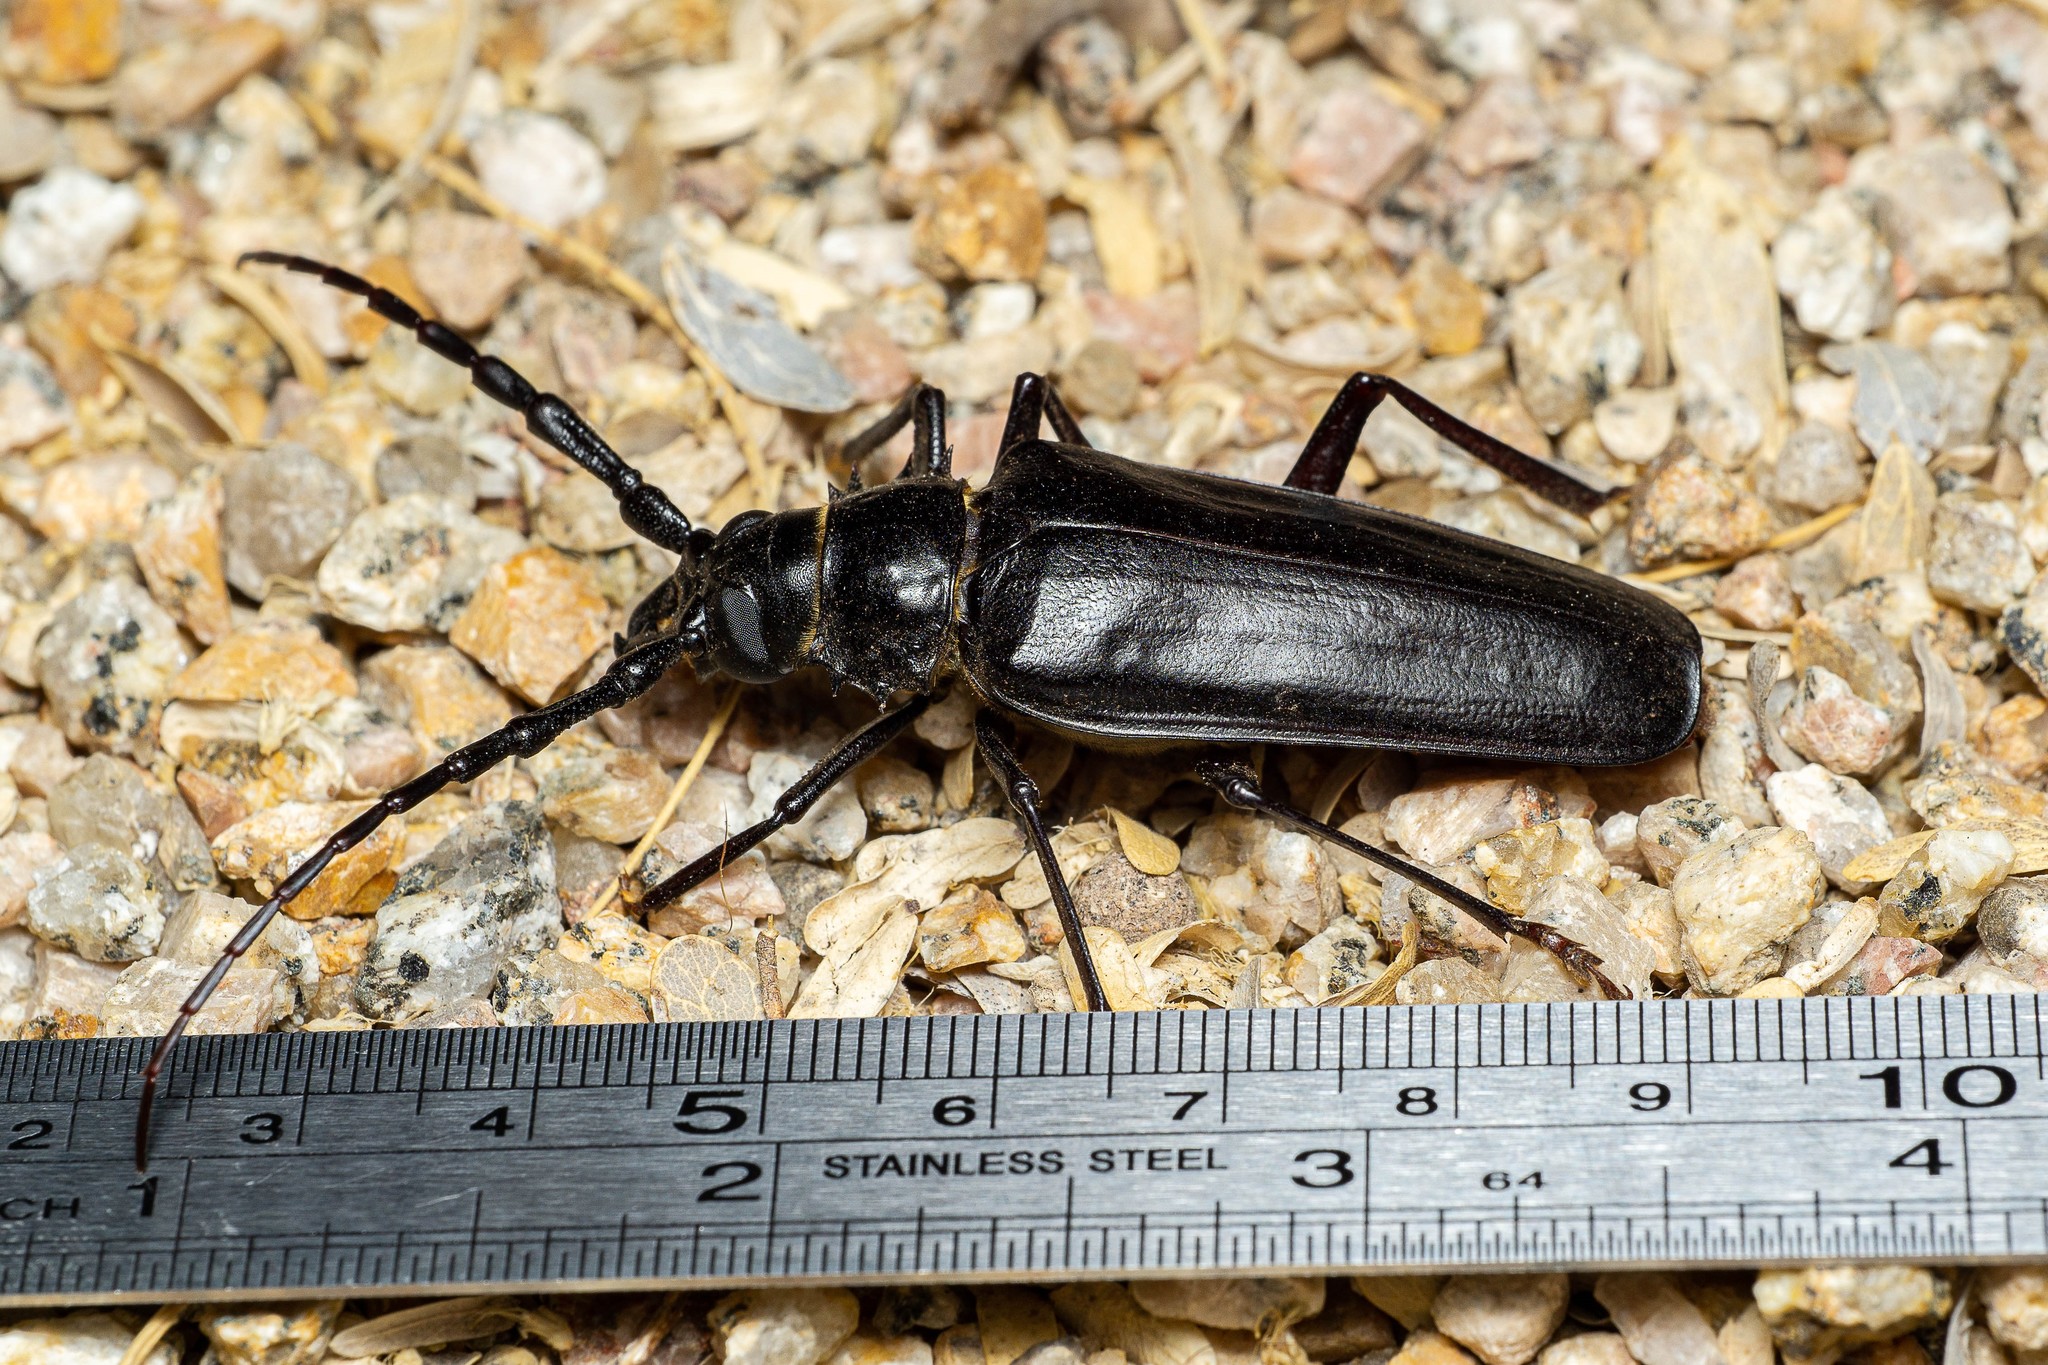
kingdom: Animalia
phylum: Arthropoda
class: Insecta
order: Coleoptera
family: Cerambycidae
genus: Derobrachus
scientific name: Derobrachus hovorei
